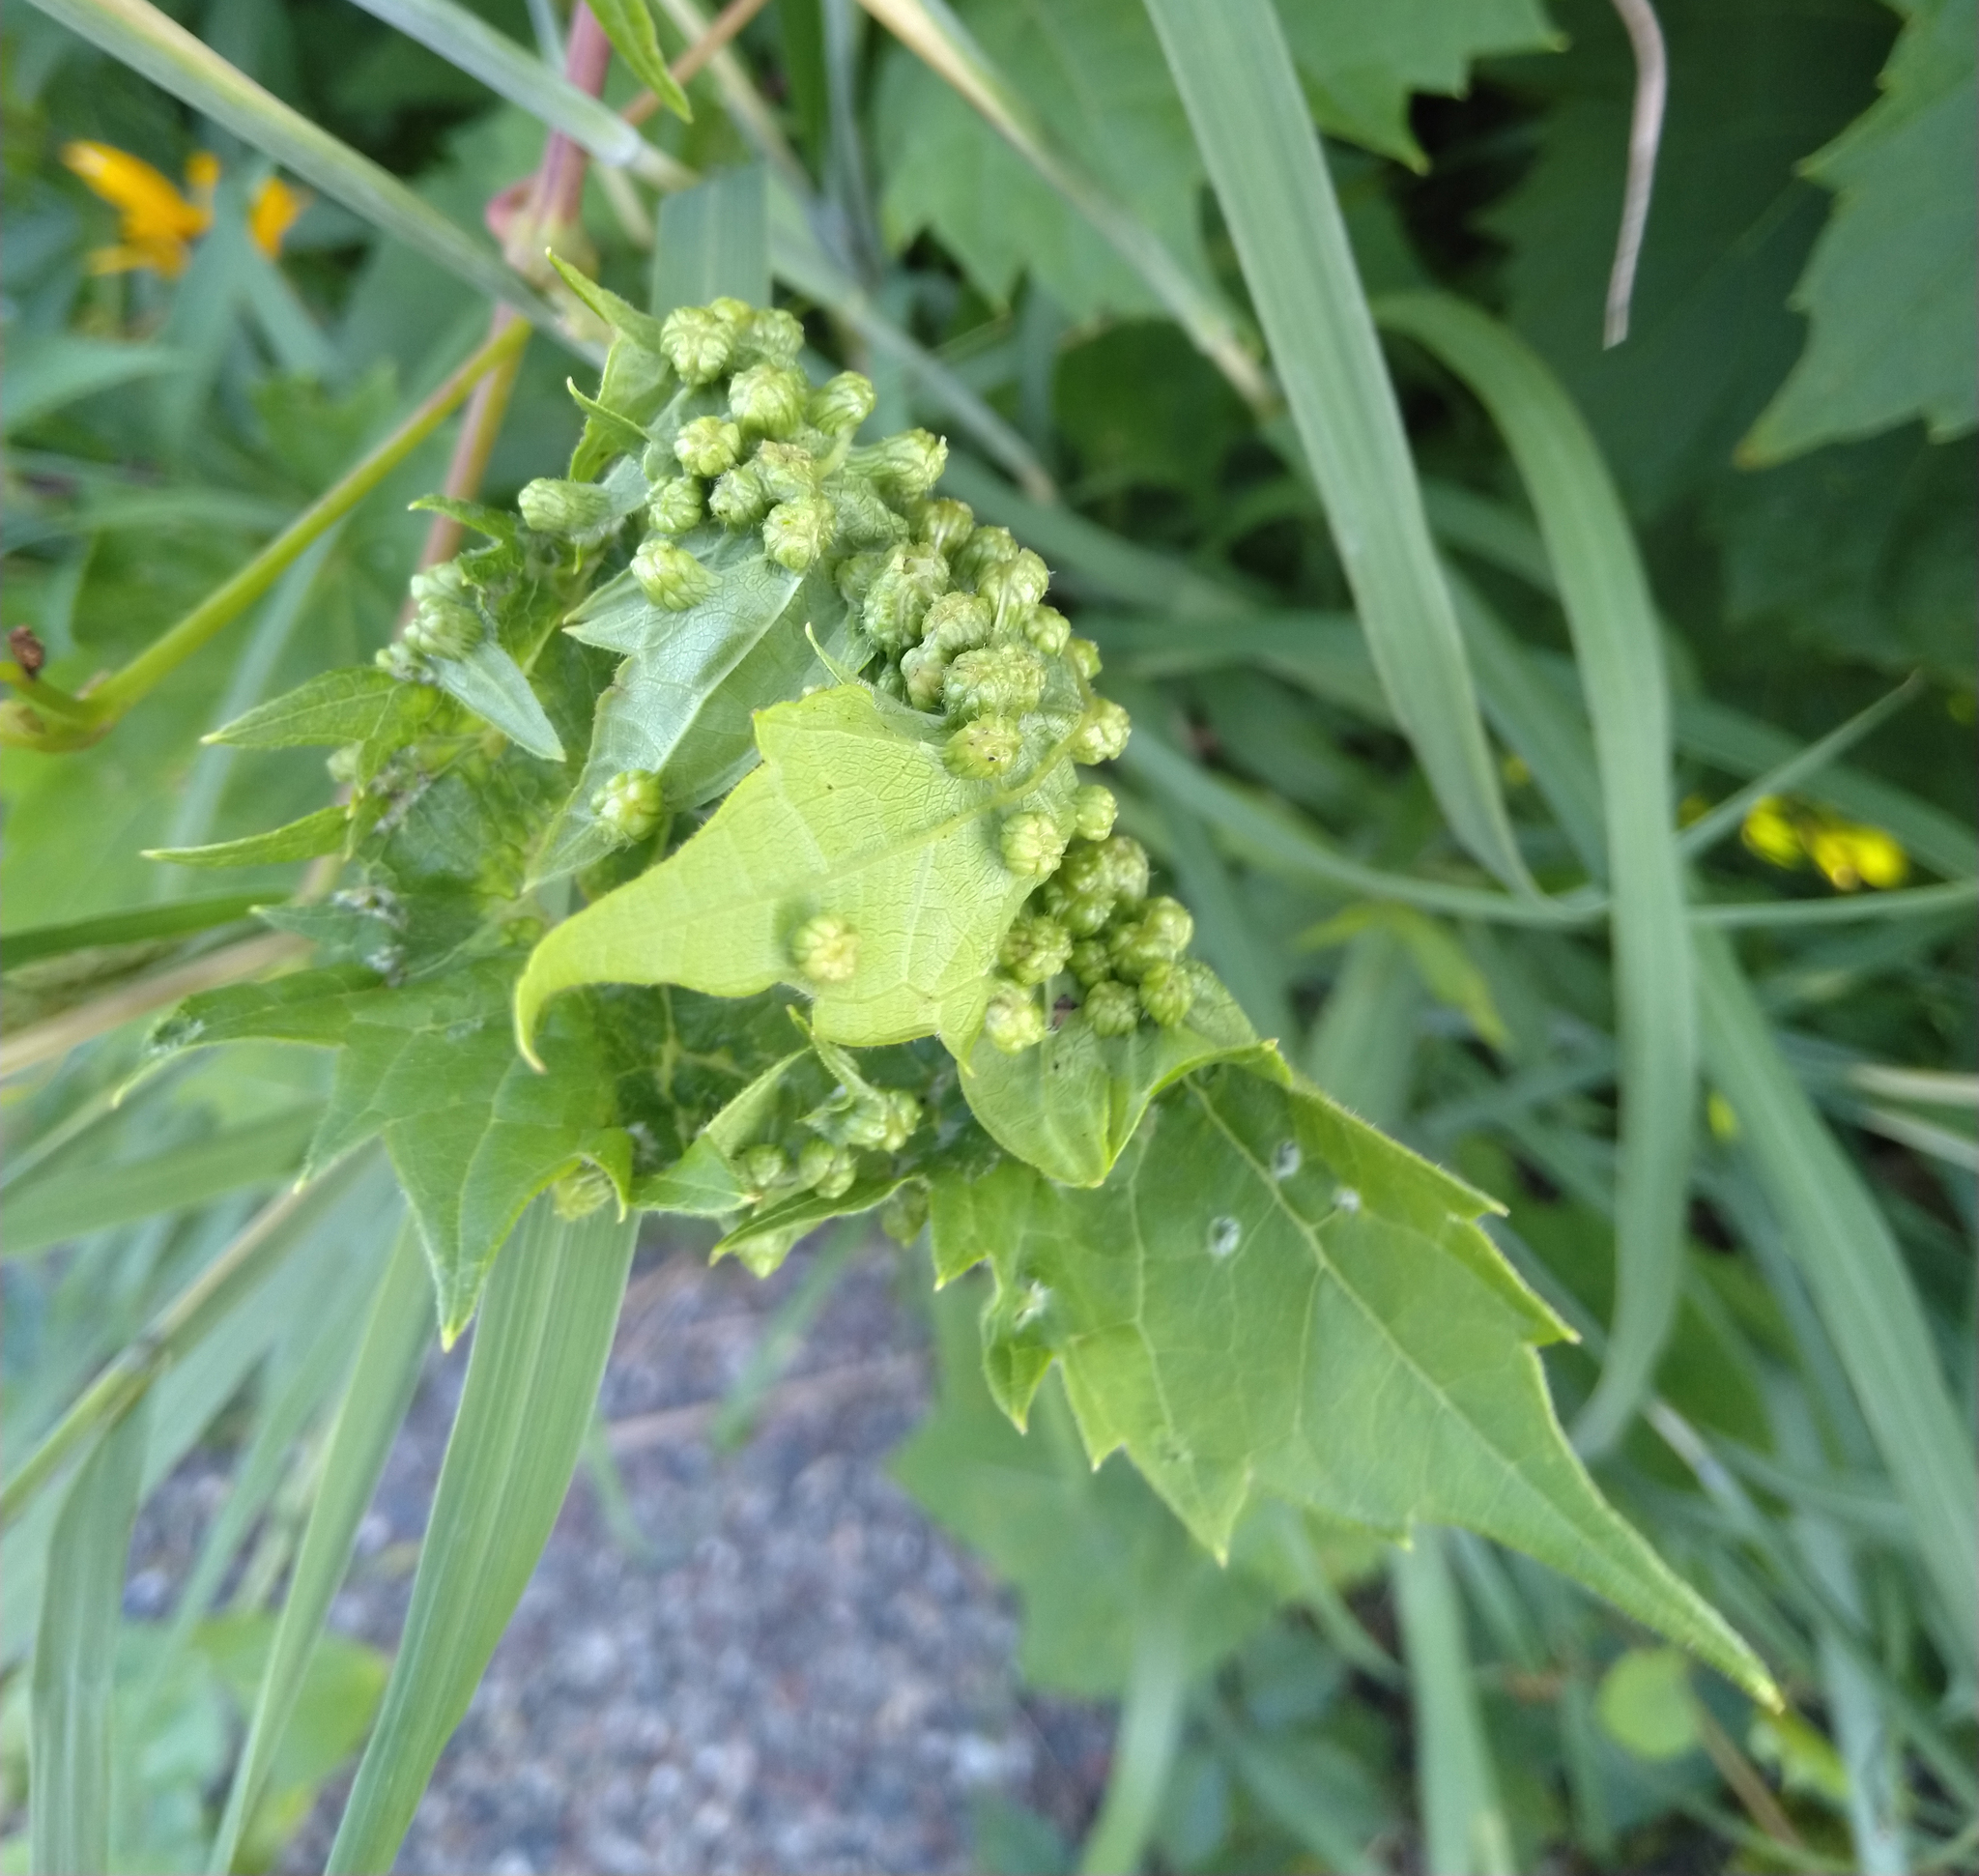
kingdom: Animalia
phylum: Arthropoda
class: Insecta
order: Hemiptera
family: Phylloxeridae
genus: Daktulosphaira
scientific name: Daktulosphaira vitifoliae
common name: Grape phylloxera
